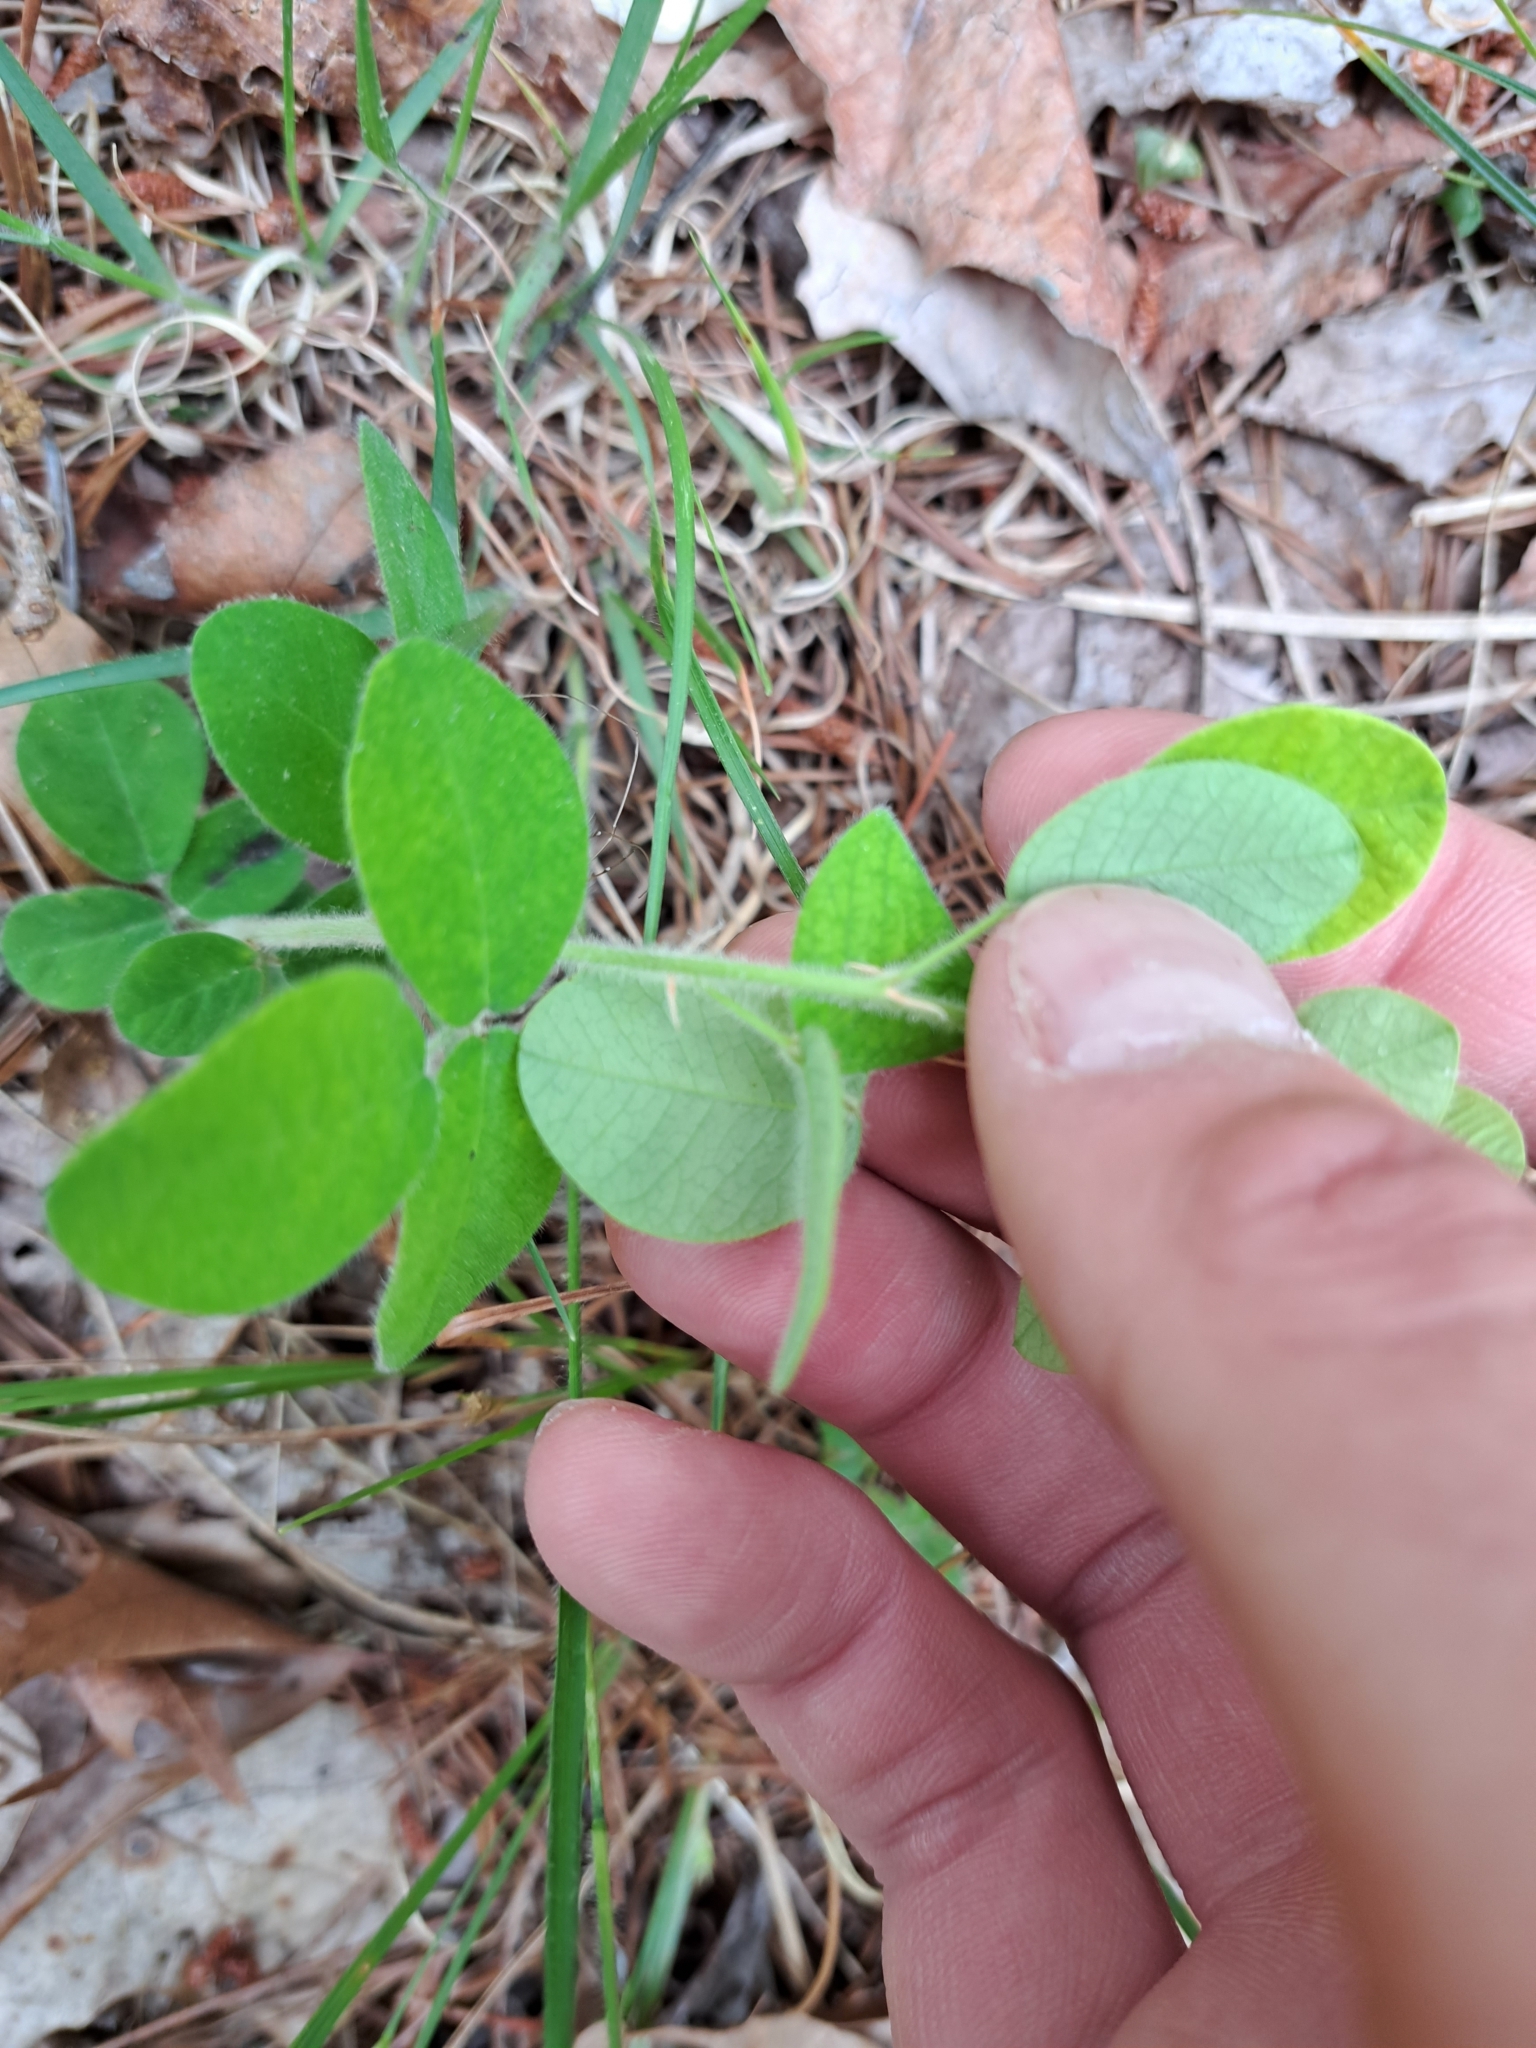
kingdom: Plantae
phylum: Tracheophyta
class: Magnoliopsida
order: Fabales
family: Fabaceae
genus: Lespedeza
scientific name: Lespedeza hirta
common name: Hairy lespedeza
